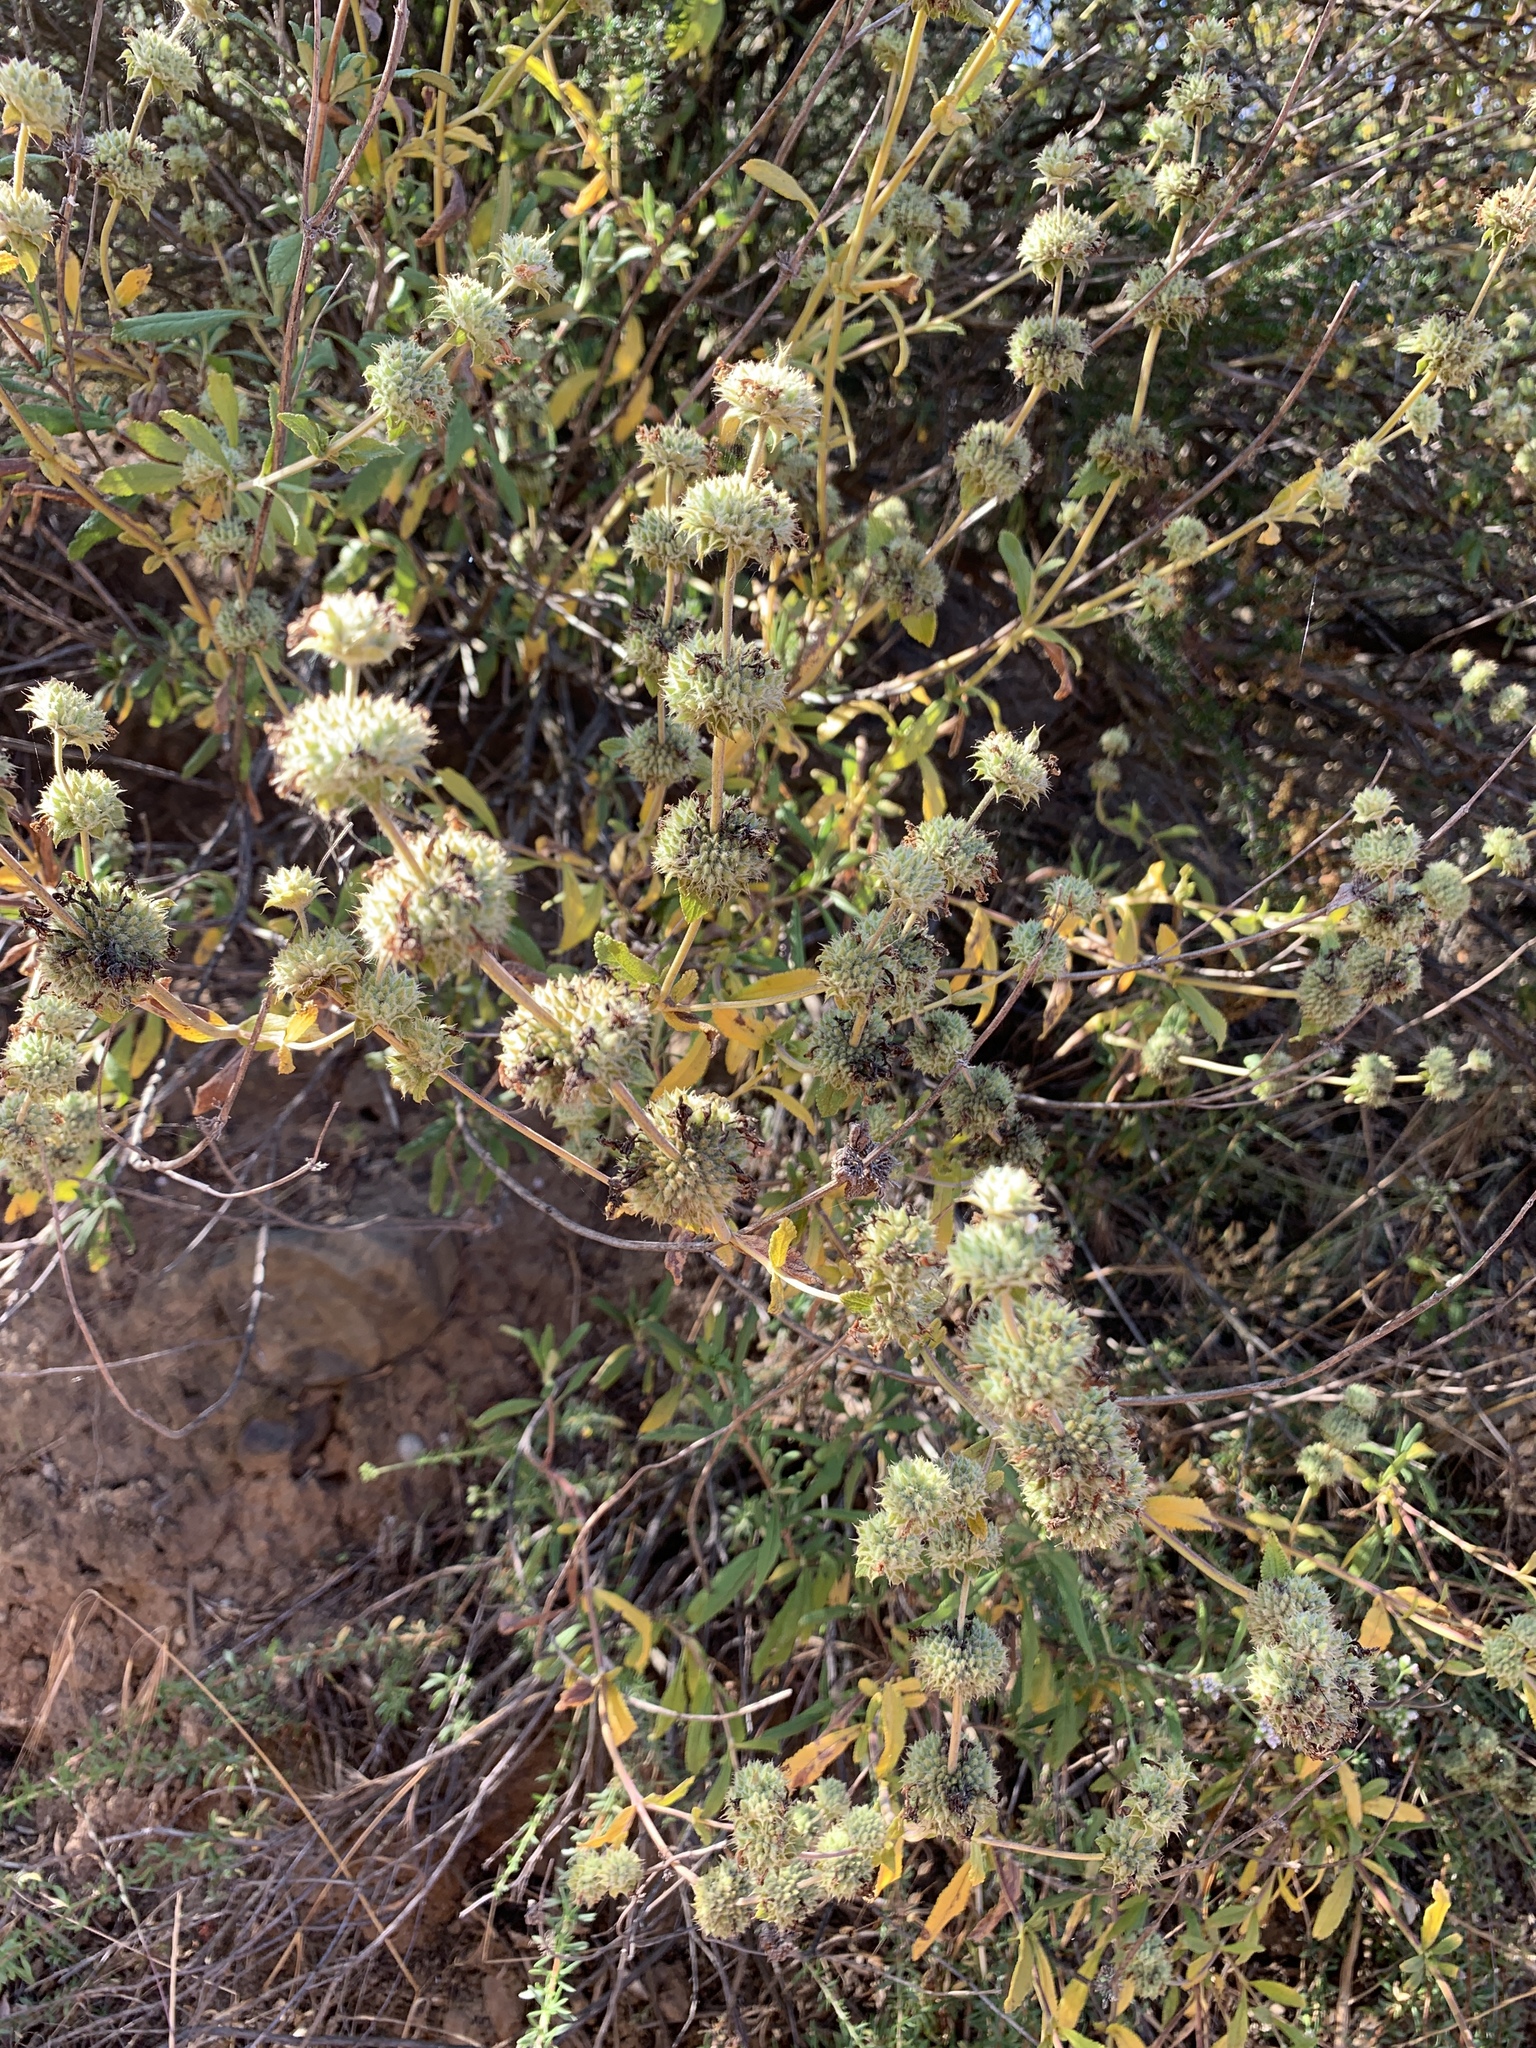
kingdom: Plantae
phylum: Tracheophyta
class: Magnoliopsida
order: Lamiales
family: Lamiaceae
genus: Salvia
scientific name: Salvia mellifera
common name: Black sage
